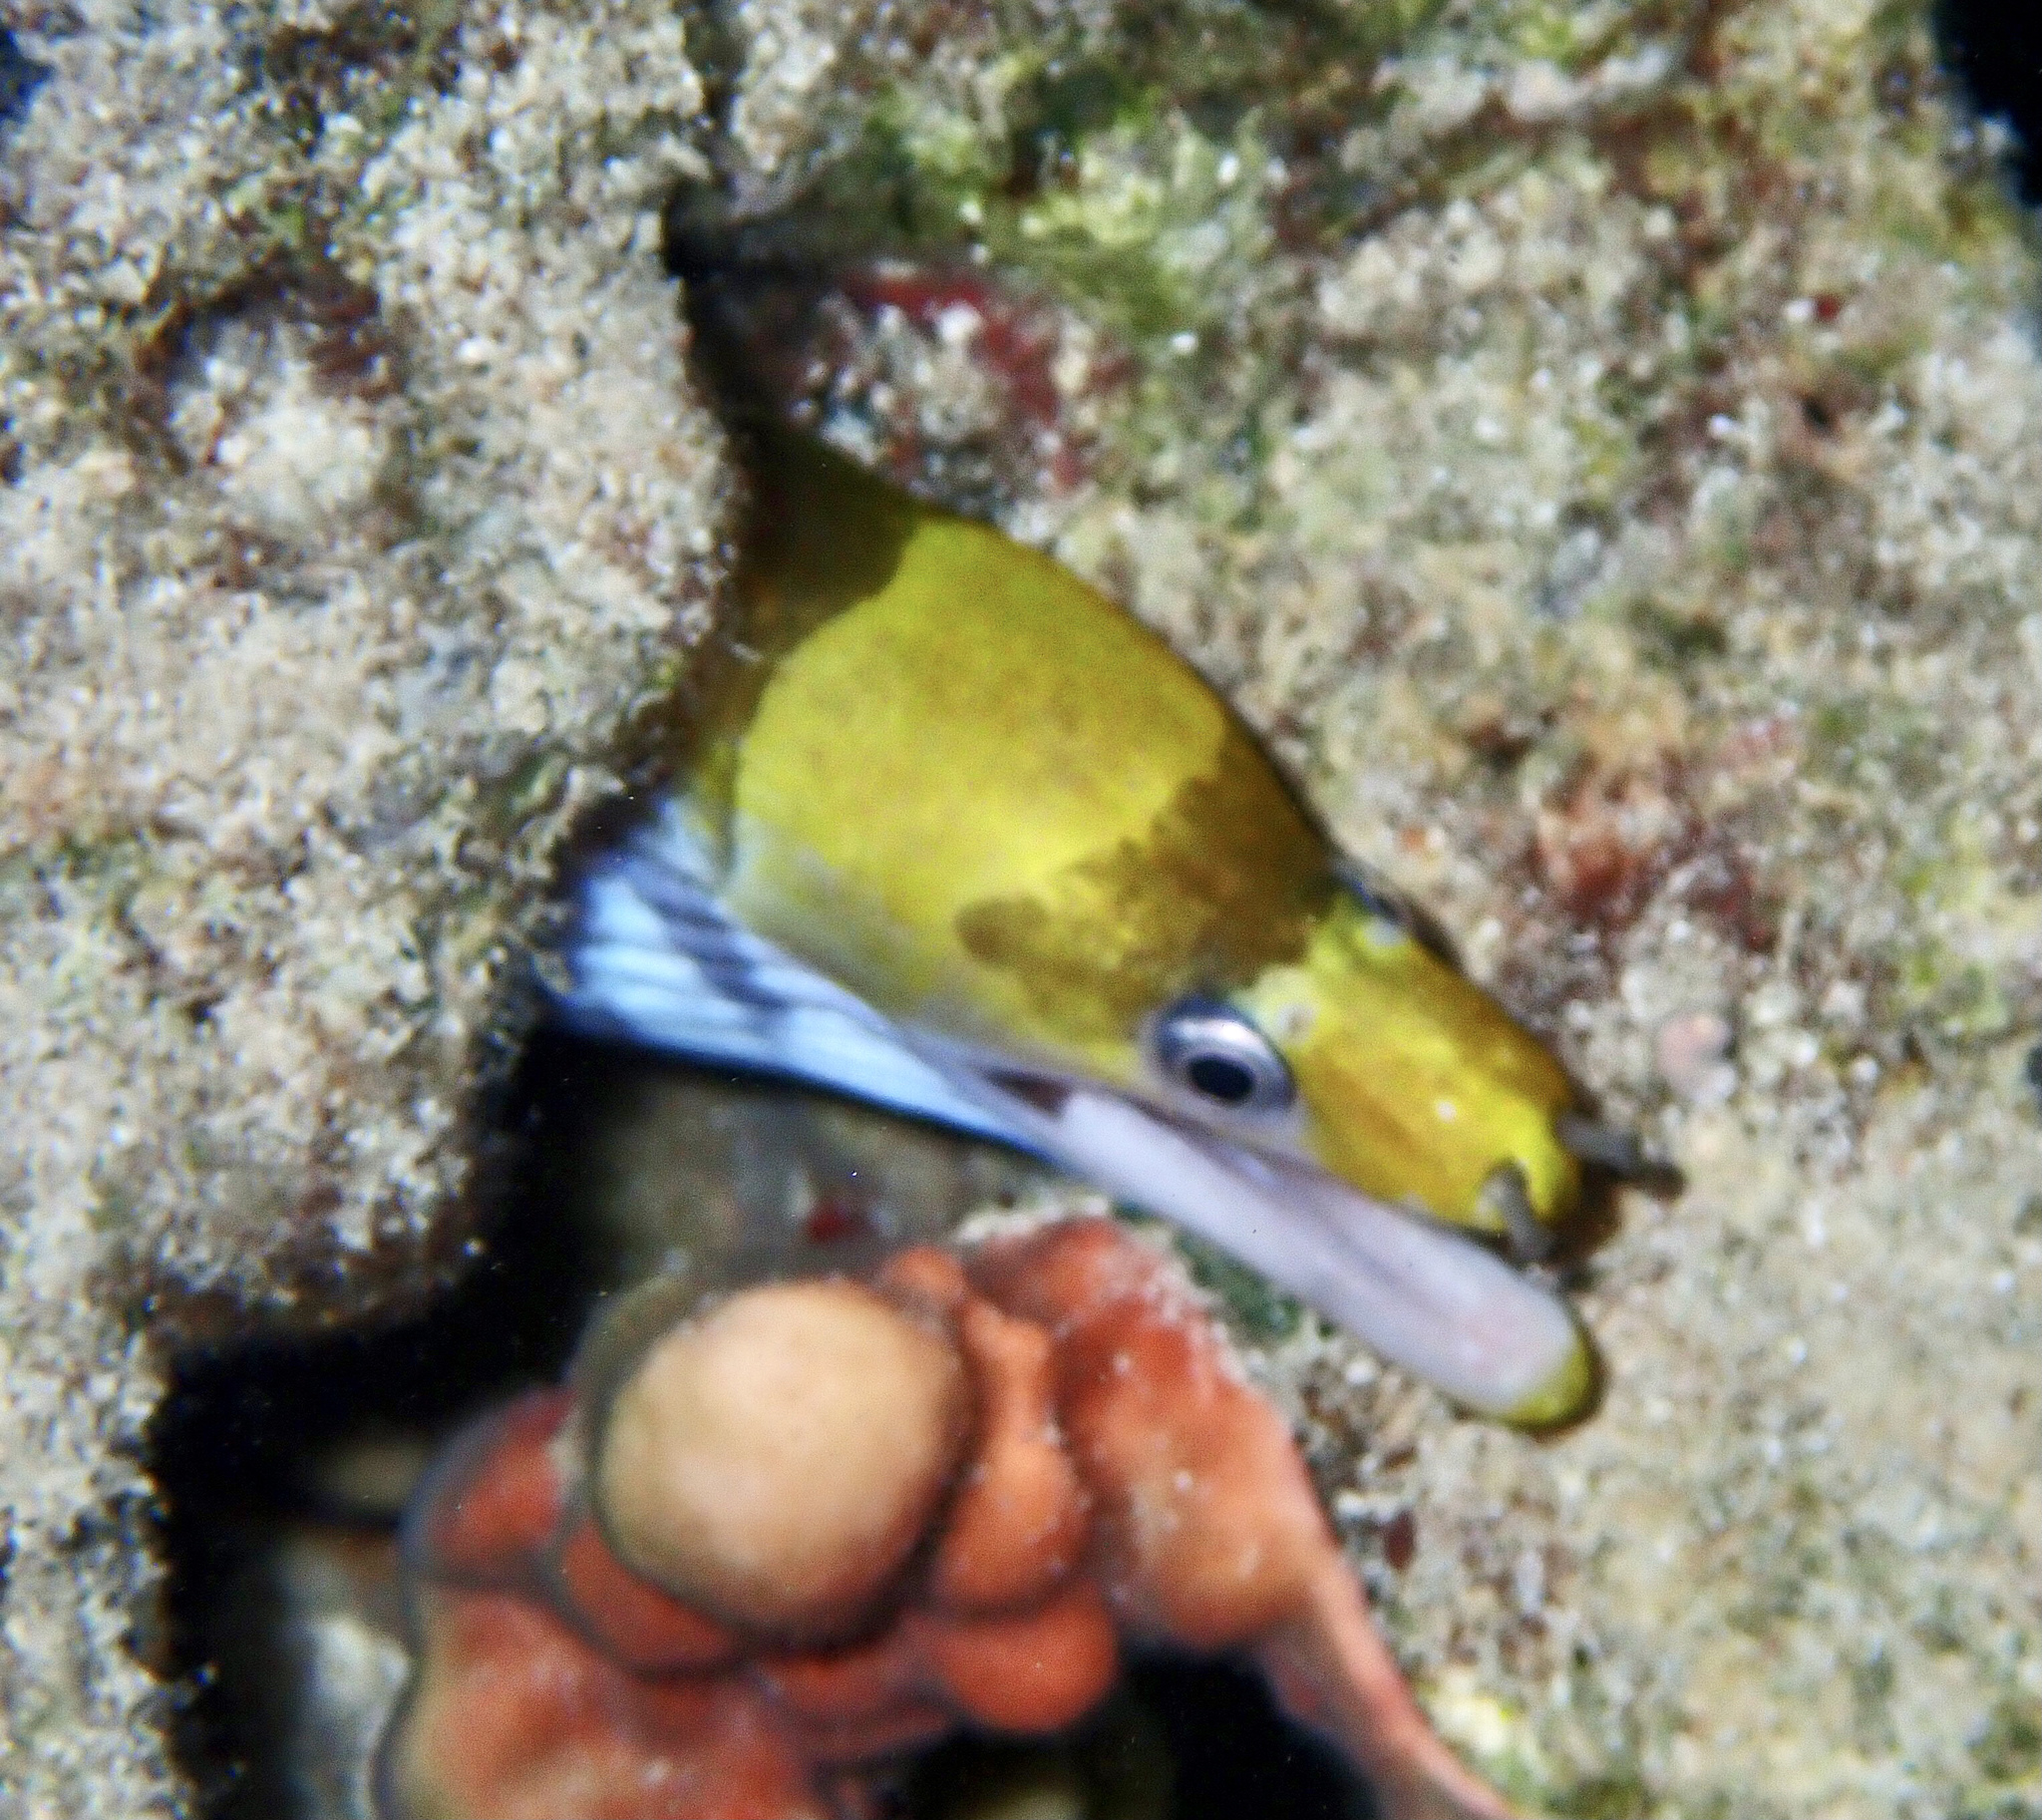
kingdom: Animalia
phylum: Chordata
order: Anguilliformes
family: Muraenidae
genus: Gymnothorax
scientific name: Gymnothorax rueppelliae
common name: Banded moray
